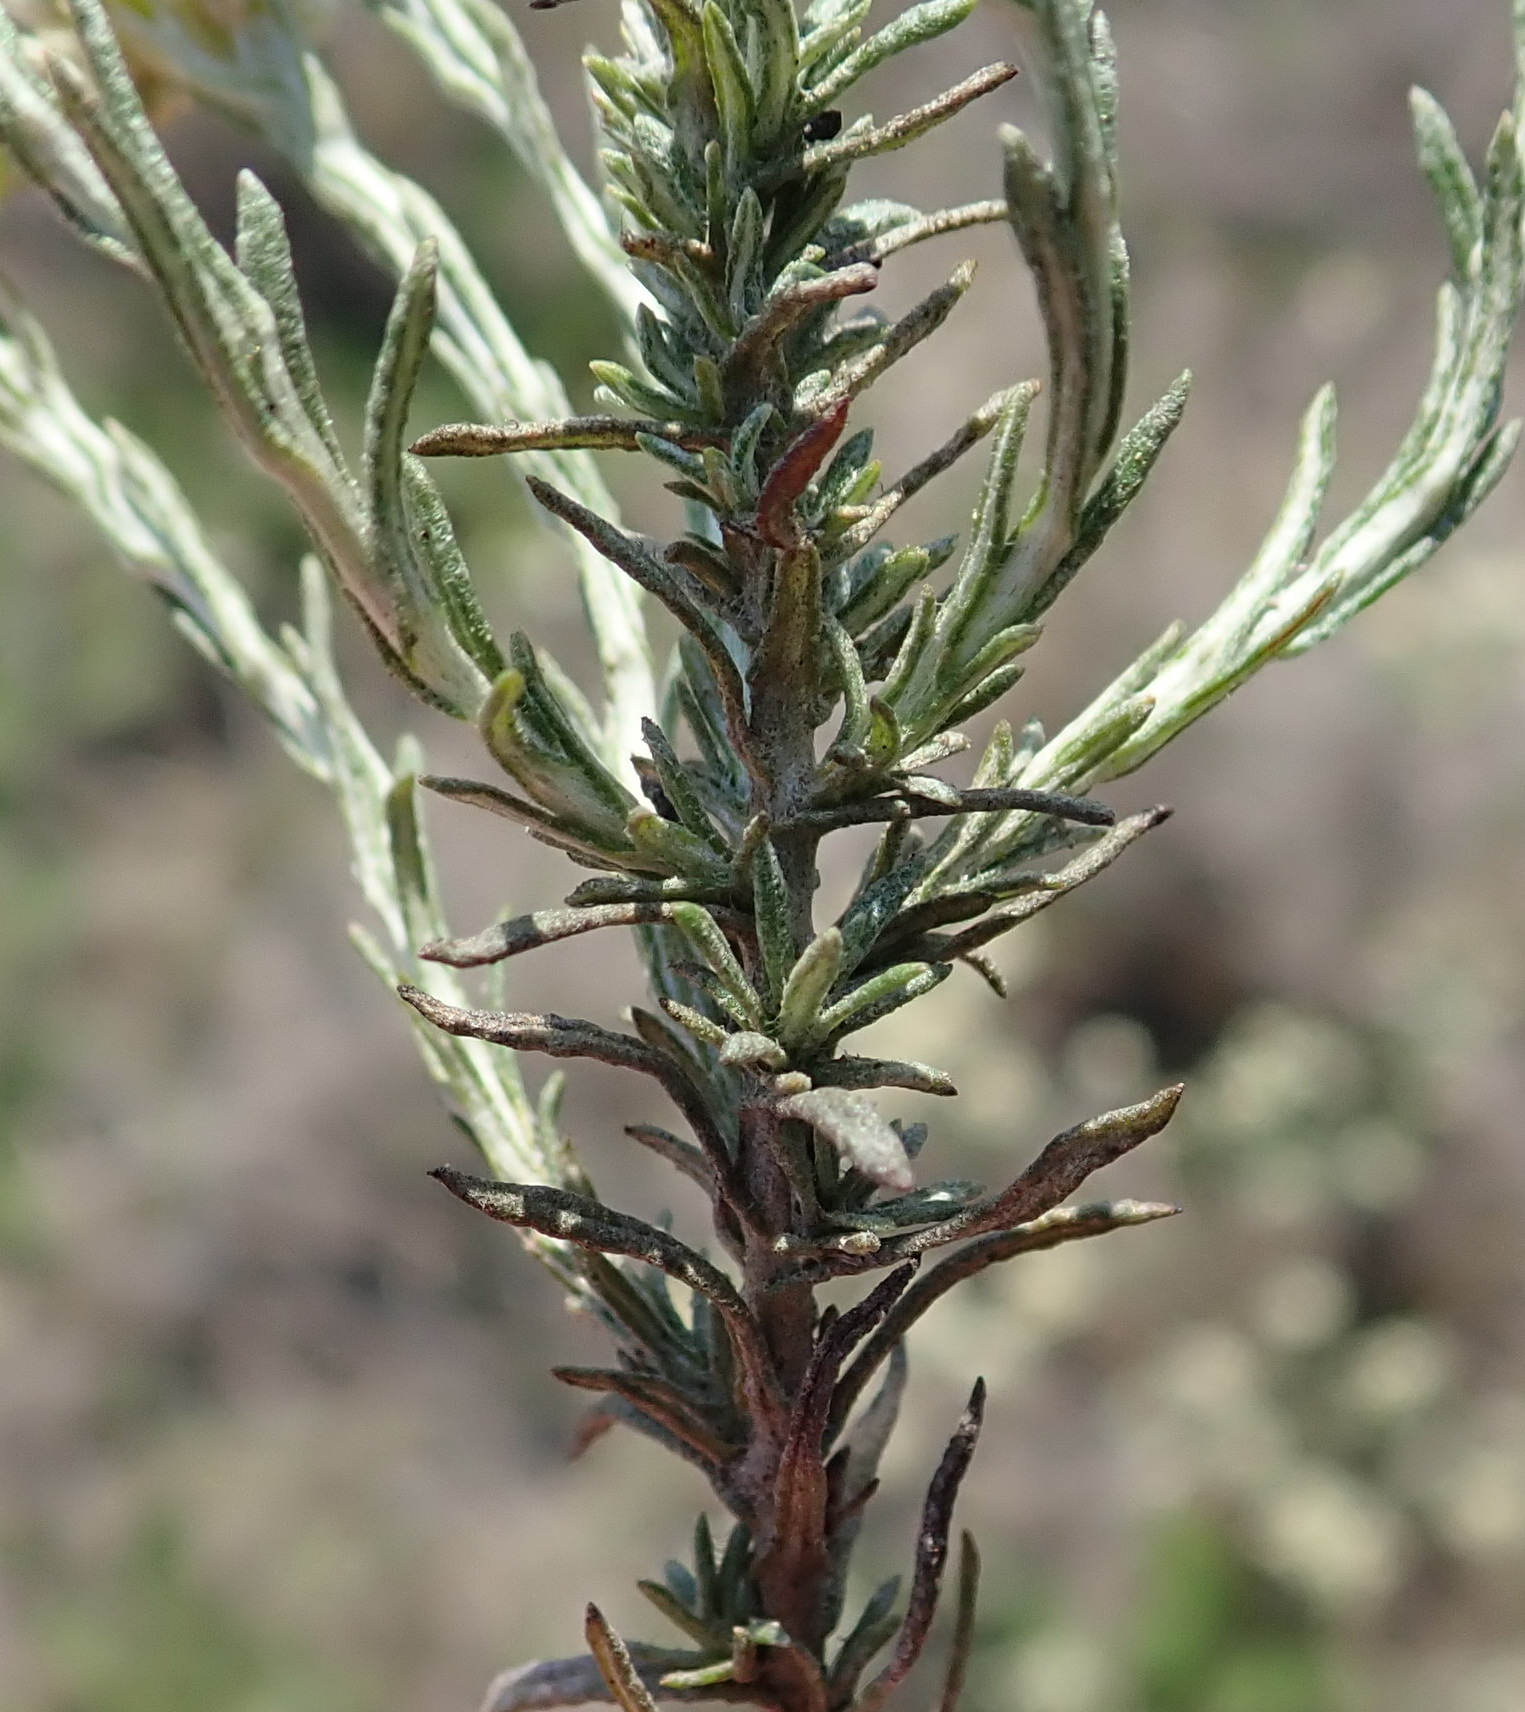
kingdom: Plantae
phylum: Tracheophyta
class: Magnoliopsida
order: Asterales
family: Asteraceae
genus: Helichrysum
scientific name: Helichrysum rosum
